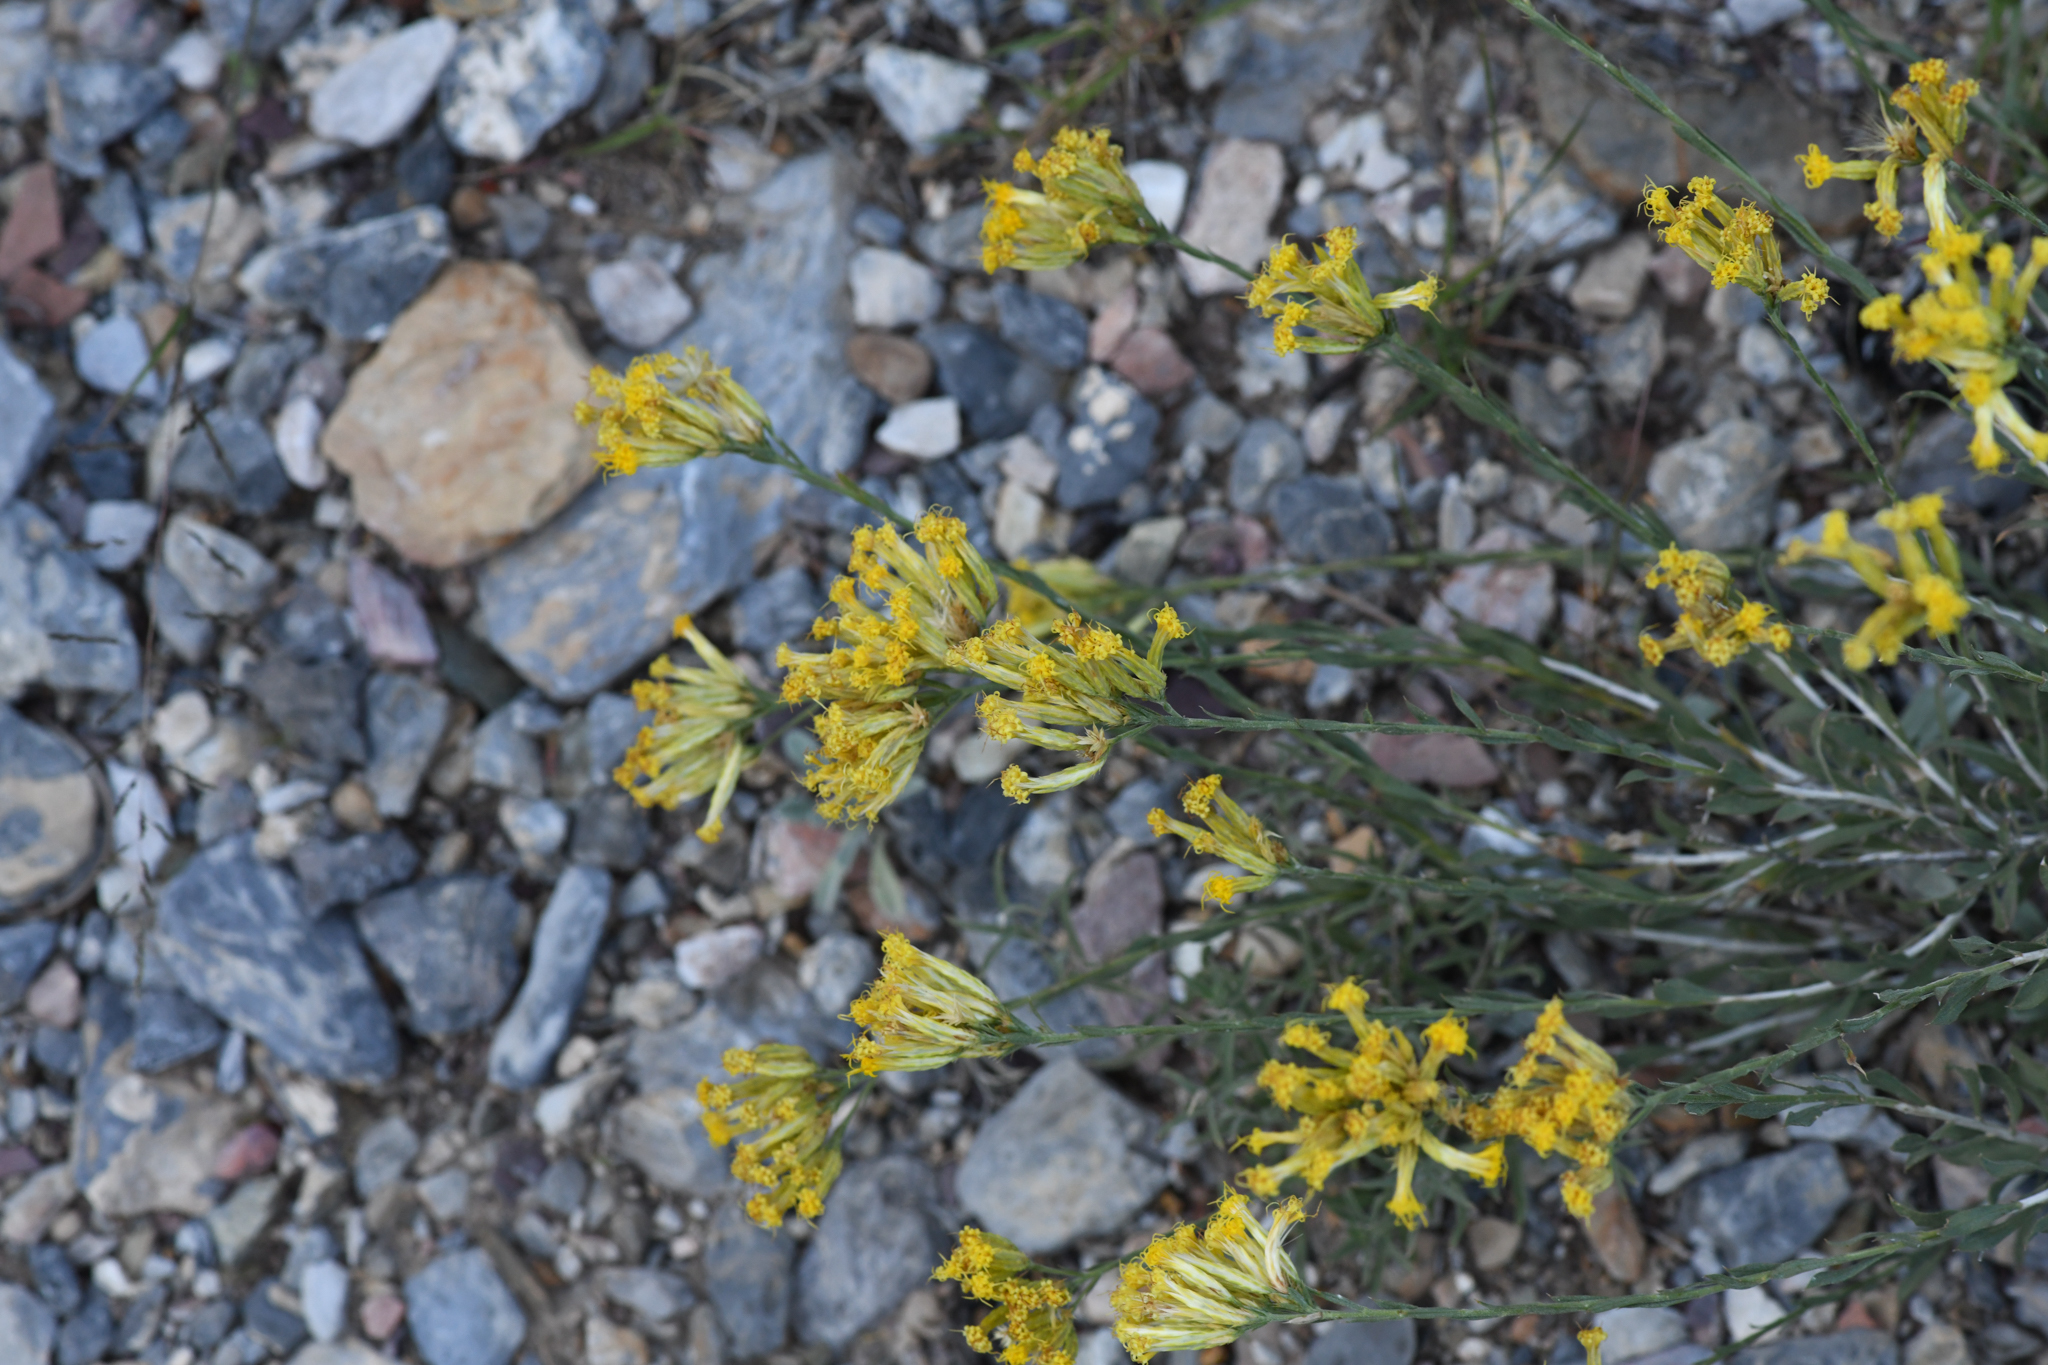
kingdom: Plantae
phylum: Tracheophyta
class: Magnoliopsida
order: Asterales
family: Asteraceae
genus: Chrysothamnus
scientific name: Chrysothamnus depressus
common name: Long-flower rabbitbrush
